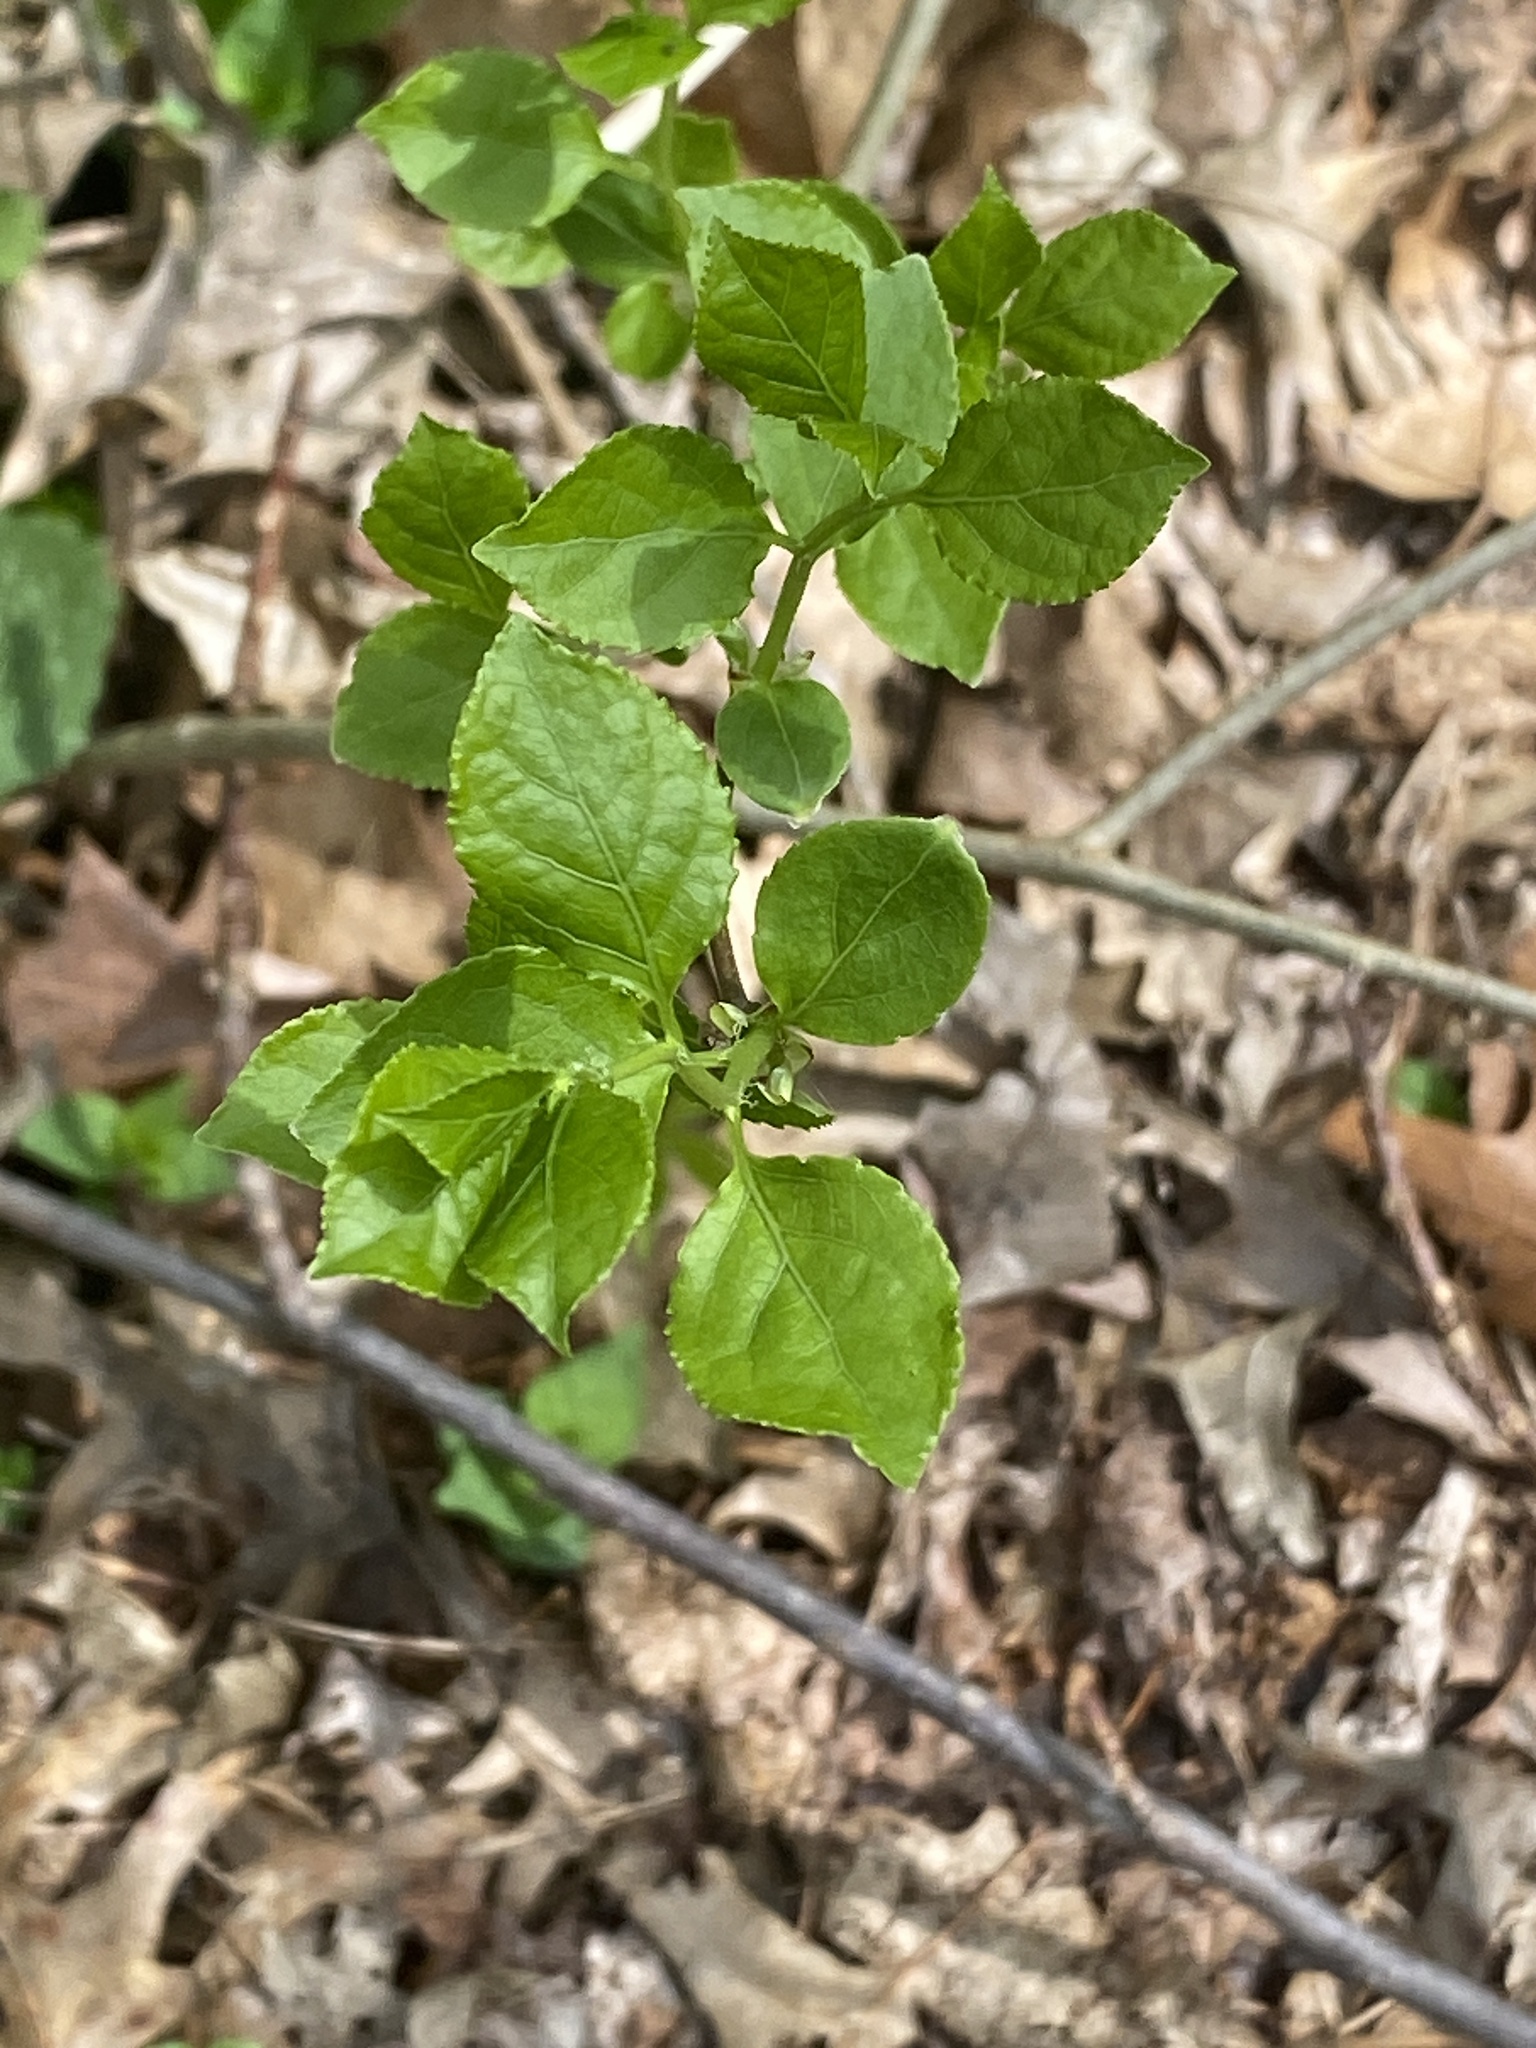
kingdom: Plantae
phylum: Tracheophyta
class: Magnoliopsida
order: Celastrales
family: Celastraceae
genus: Celastrus
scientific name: Celastrus orbiculatus
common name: Oriental bittersweet
